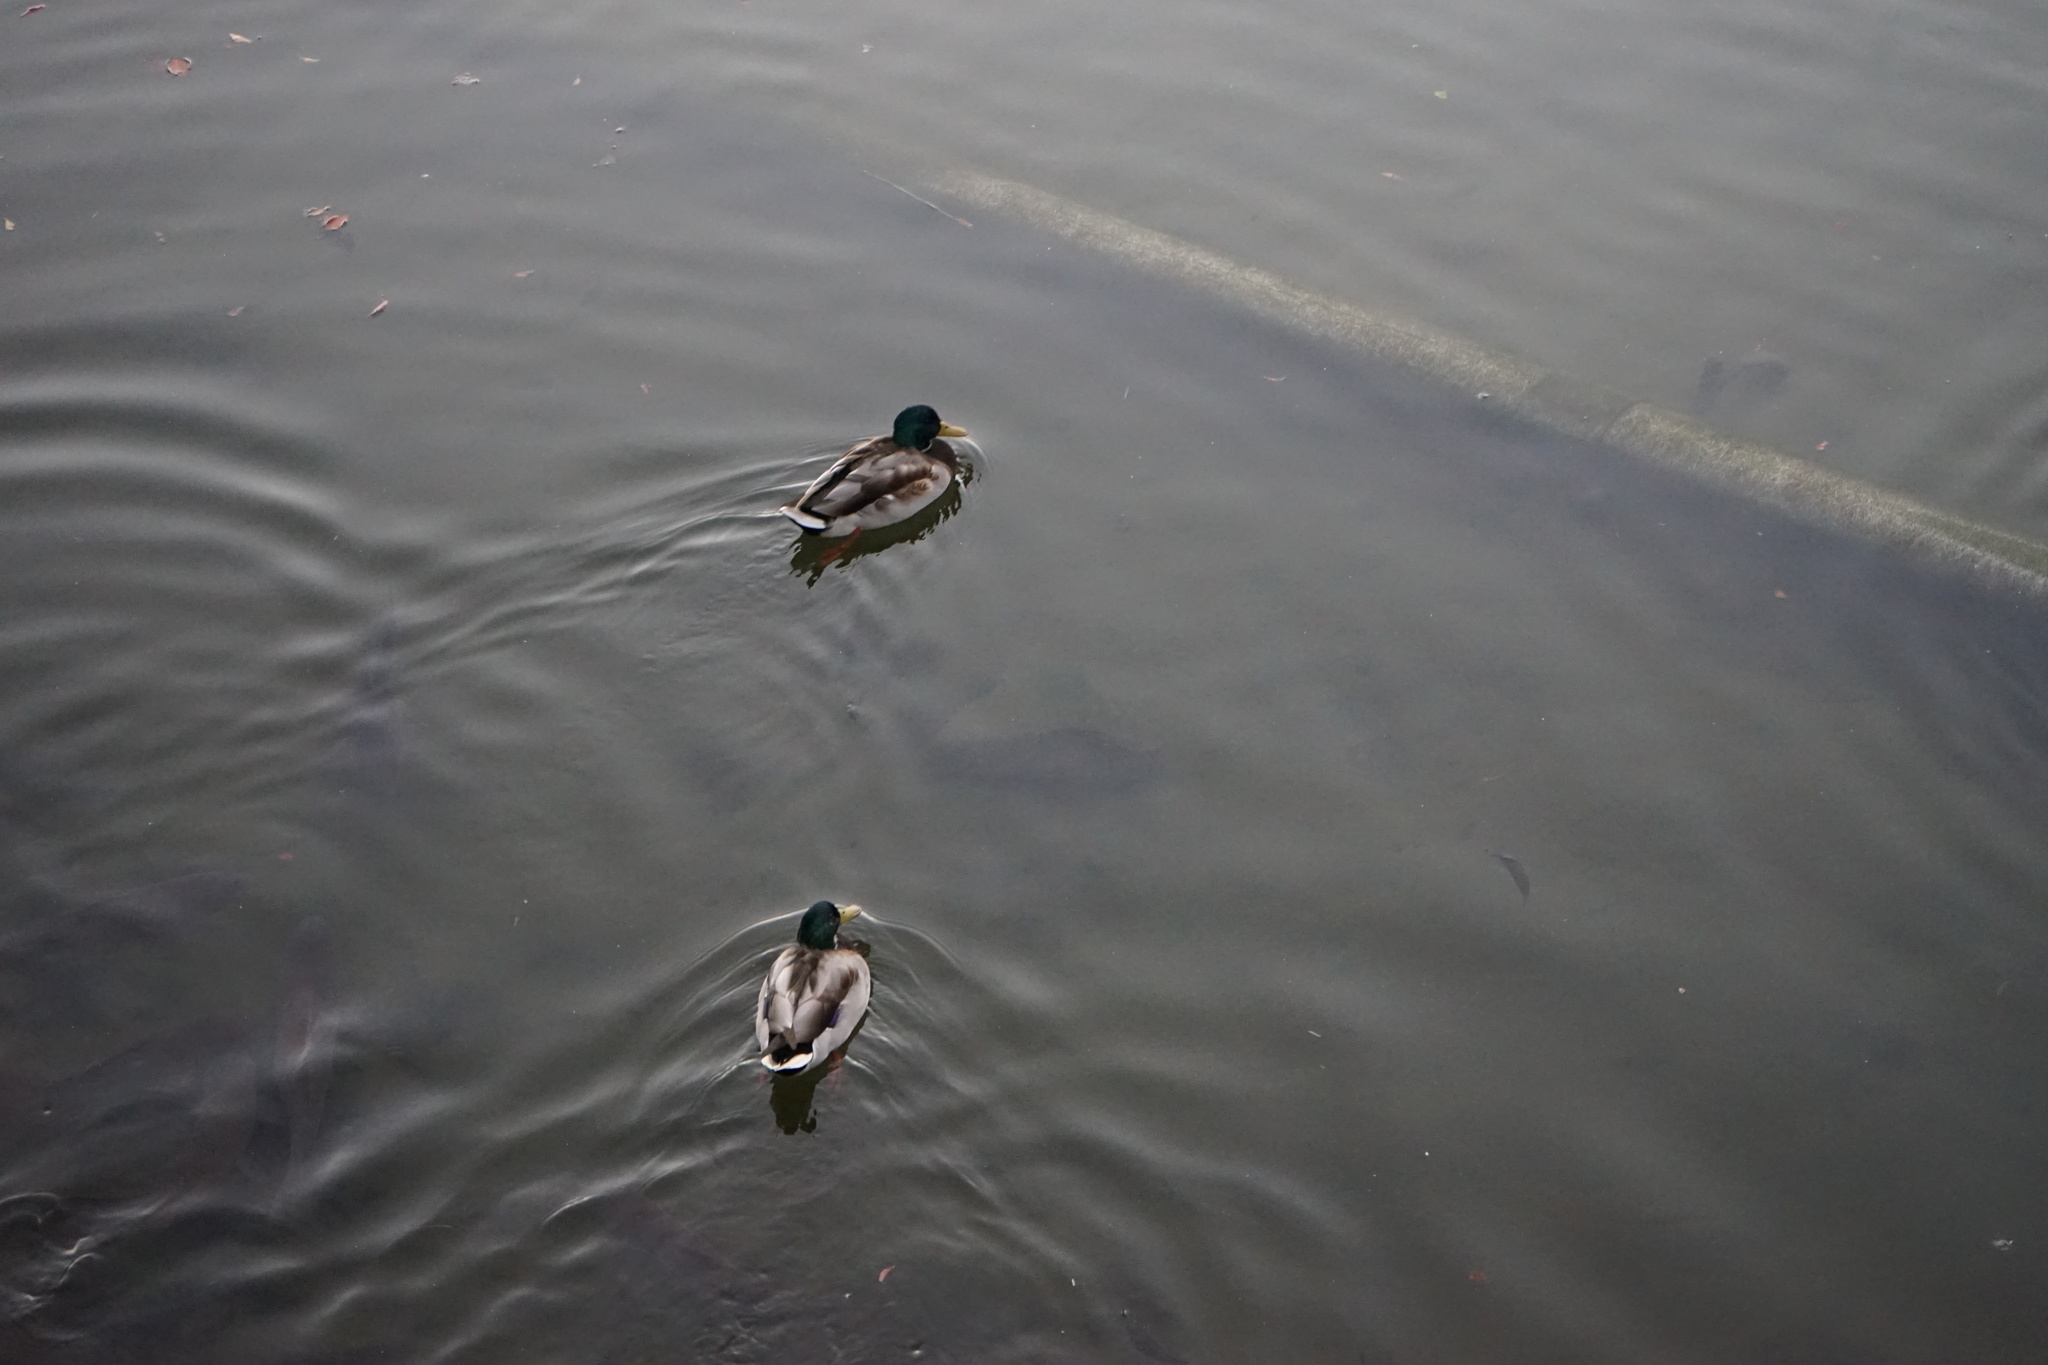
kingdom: Animalia
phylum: Chordata
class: Aves
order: Anseriformes
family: Anatidae
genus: Anas
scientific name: Anas platyrhynchos
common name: Mallard
